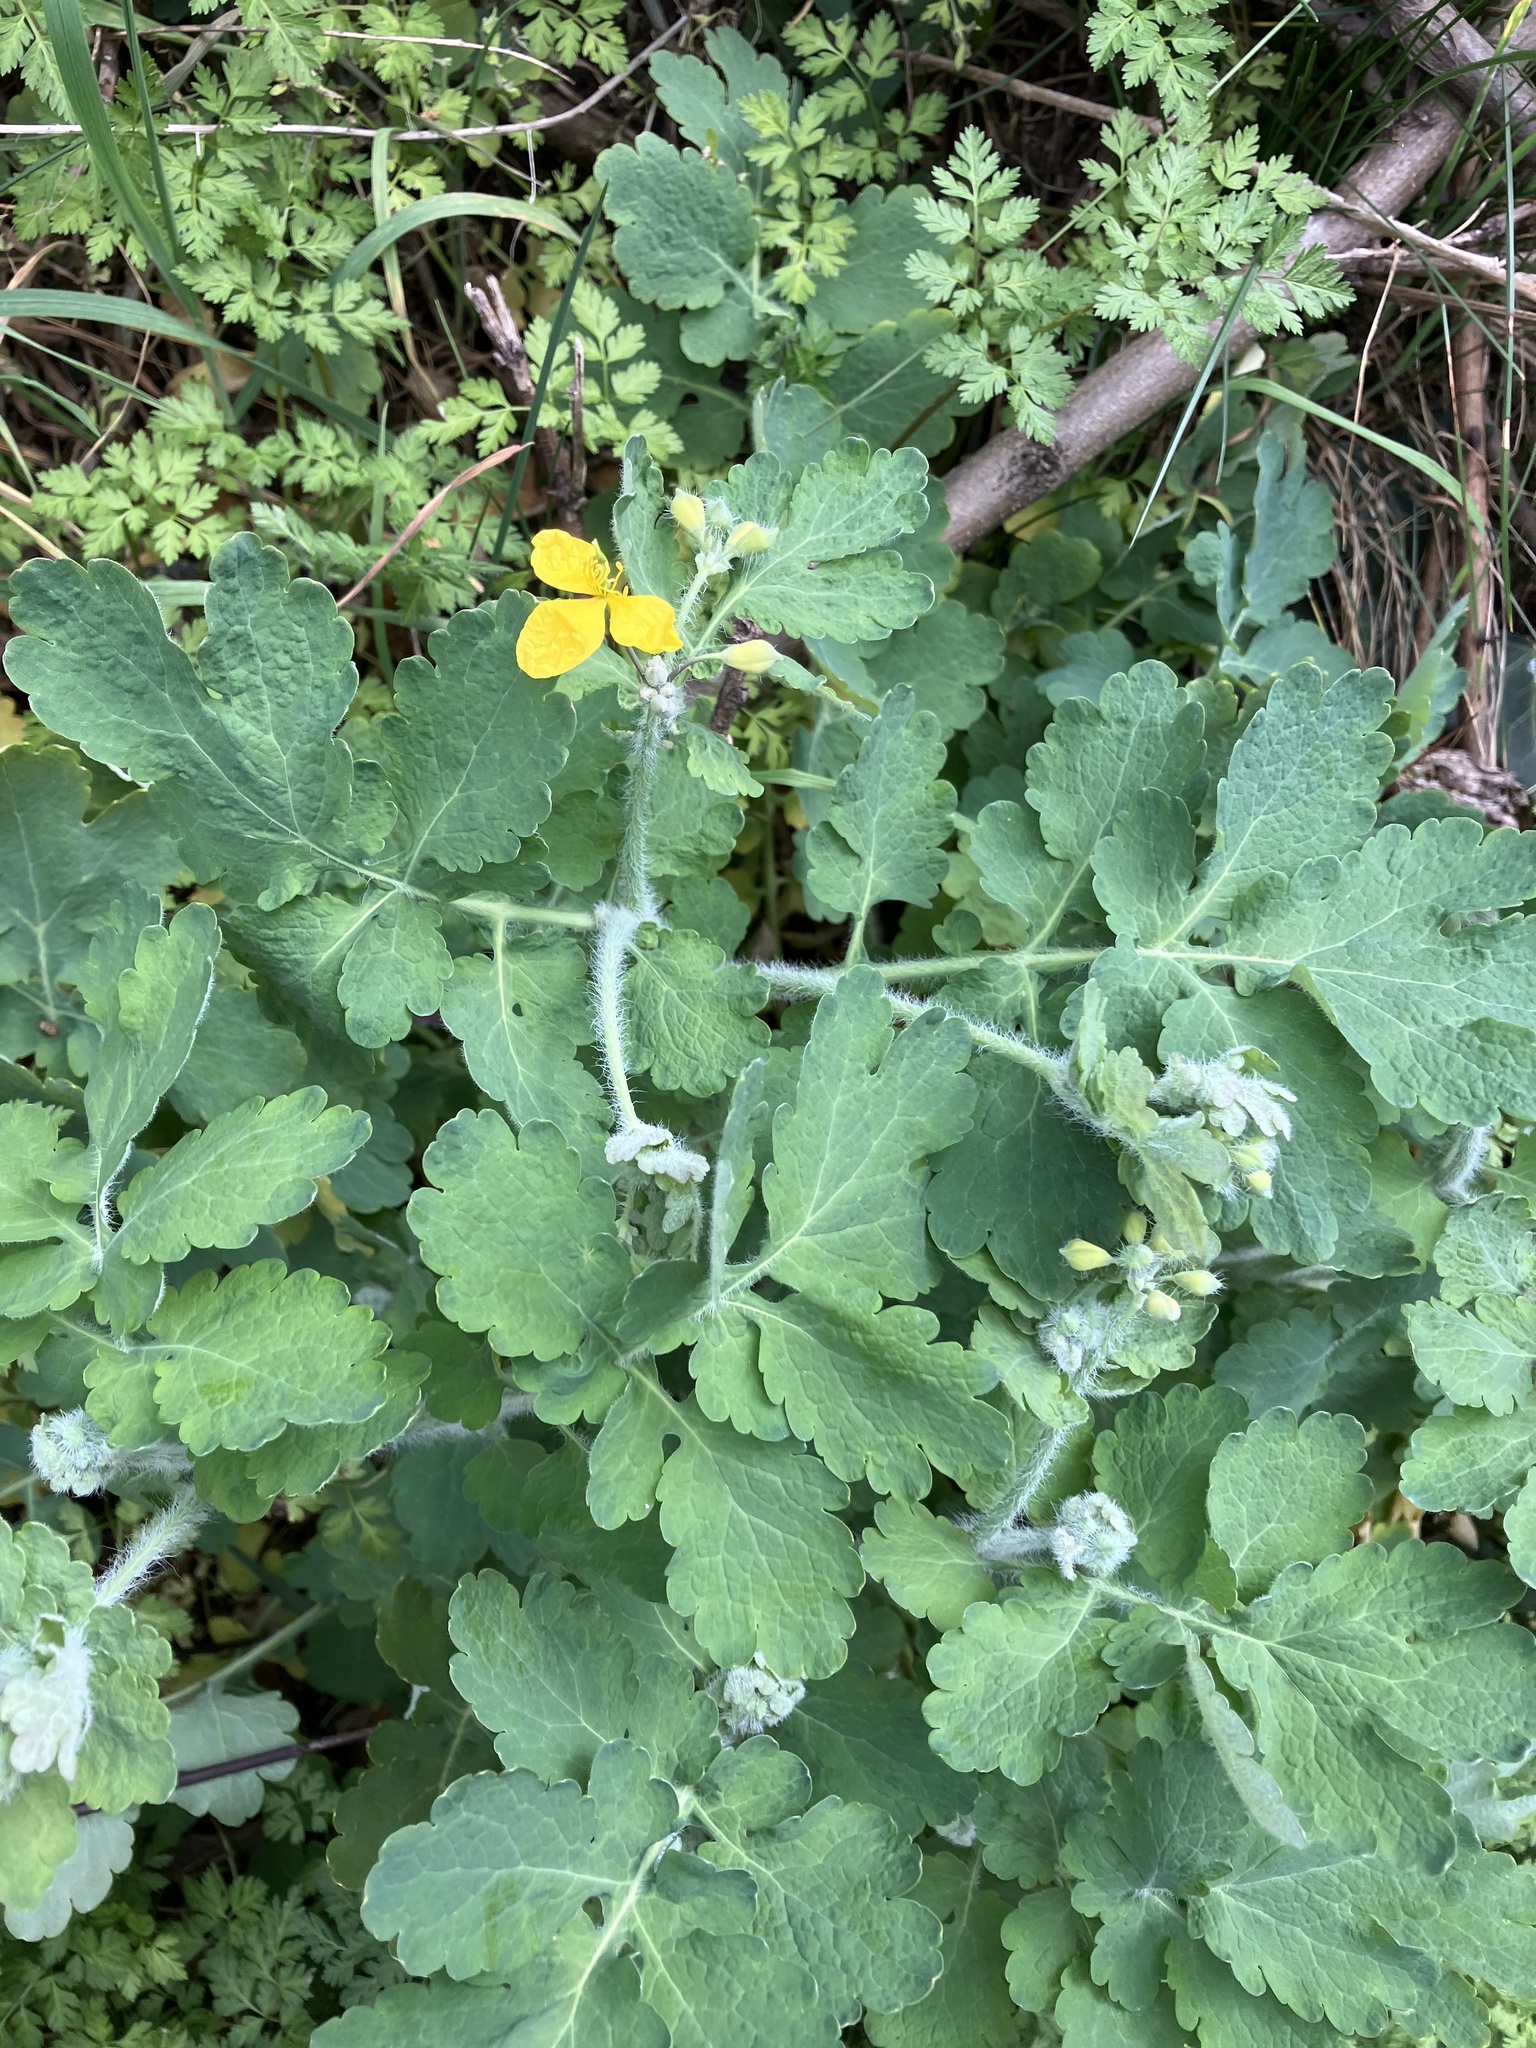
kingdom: Plantae
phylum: Tracheophyta
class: Magnoliopsida
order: Ranunculales
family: Papaveraceae
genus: Chelidonium
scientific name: Chelidonium majus
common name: Greater celandine
